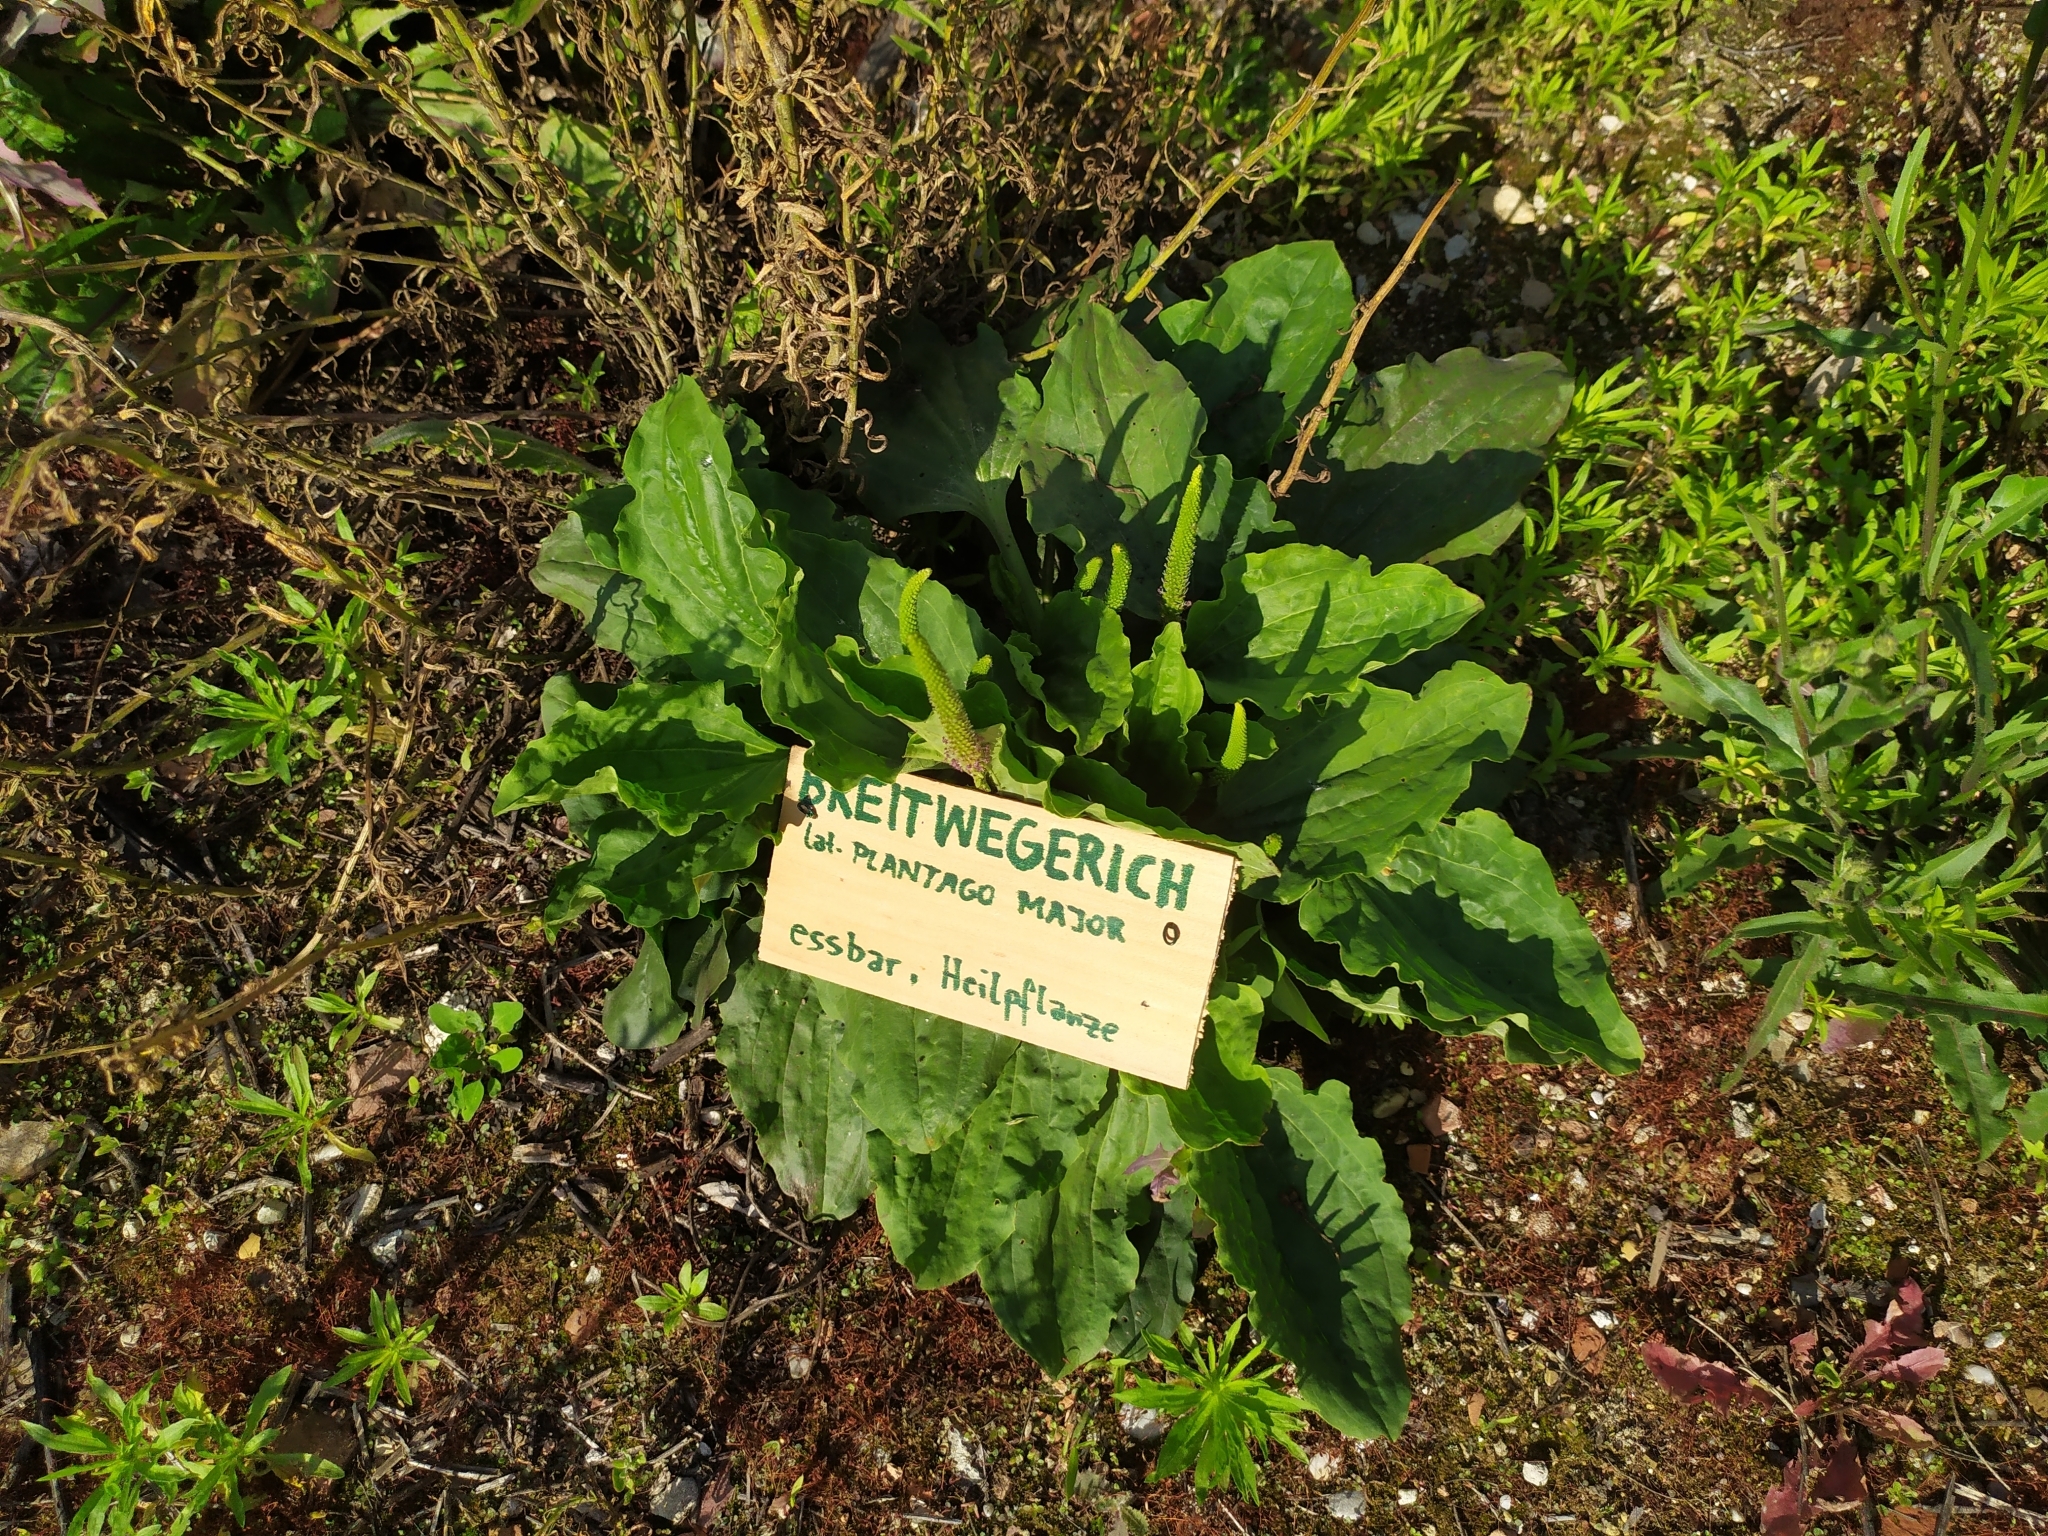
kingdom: Plantae
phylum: Tracheophyta
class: Magnoliopsida
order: Lamiales
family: Plantaginaceae
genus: Plantago
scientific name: Plantago major
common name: Common plantain
